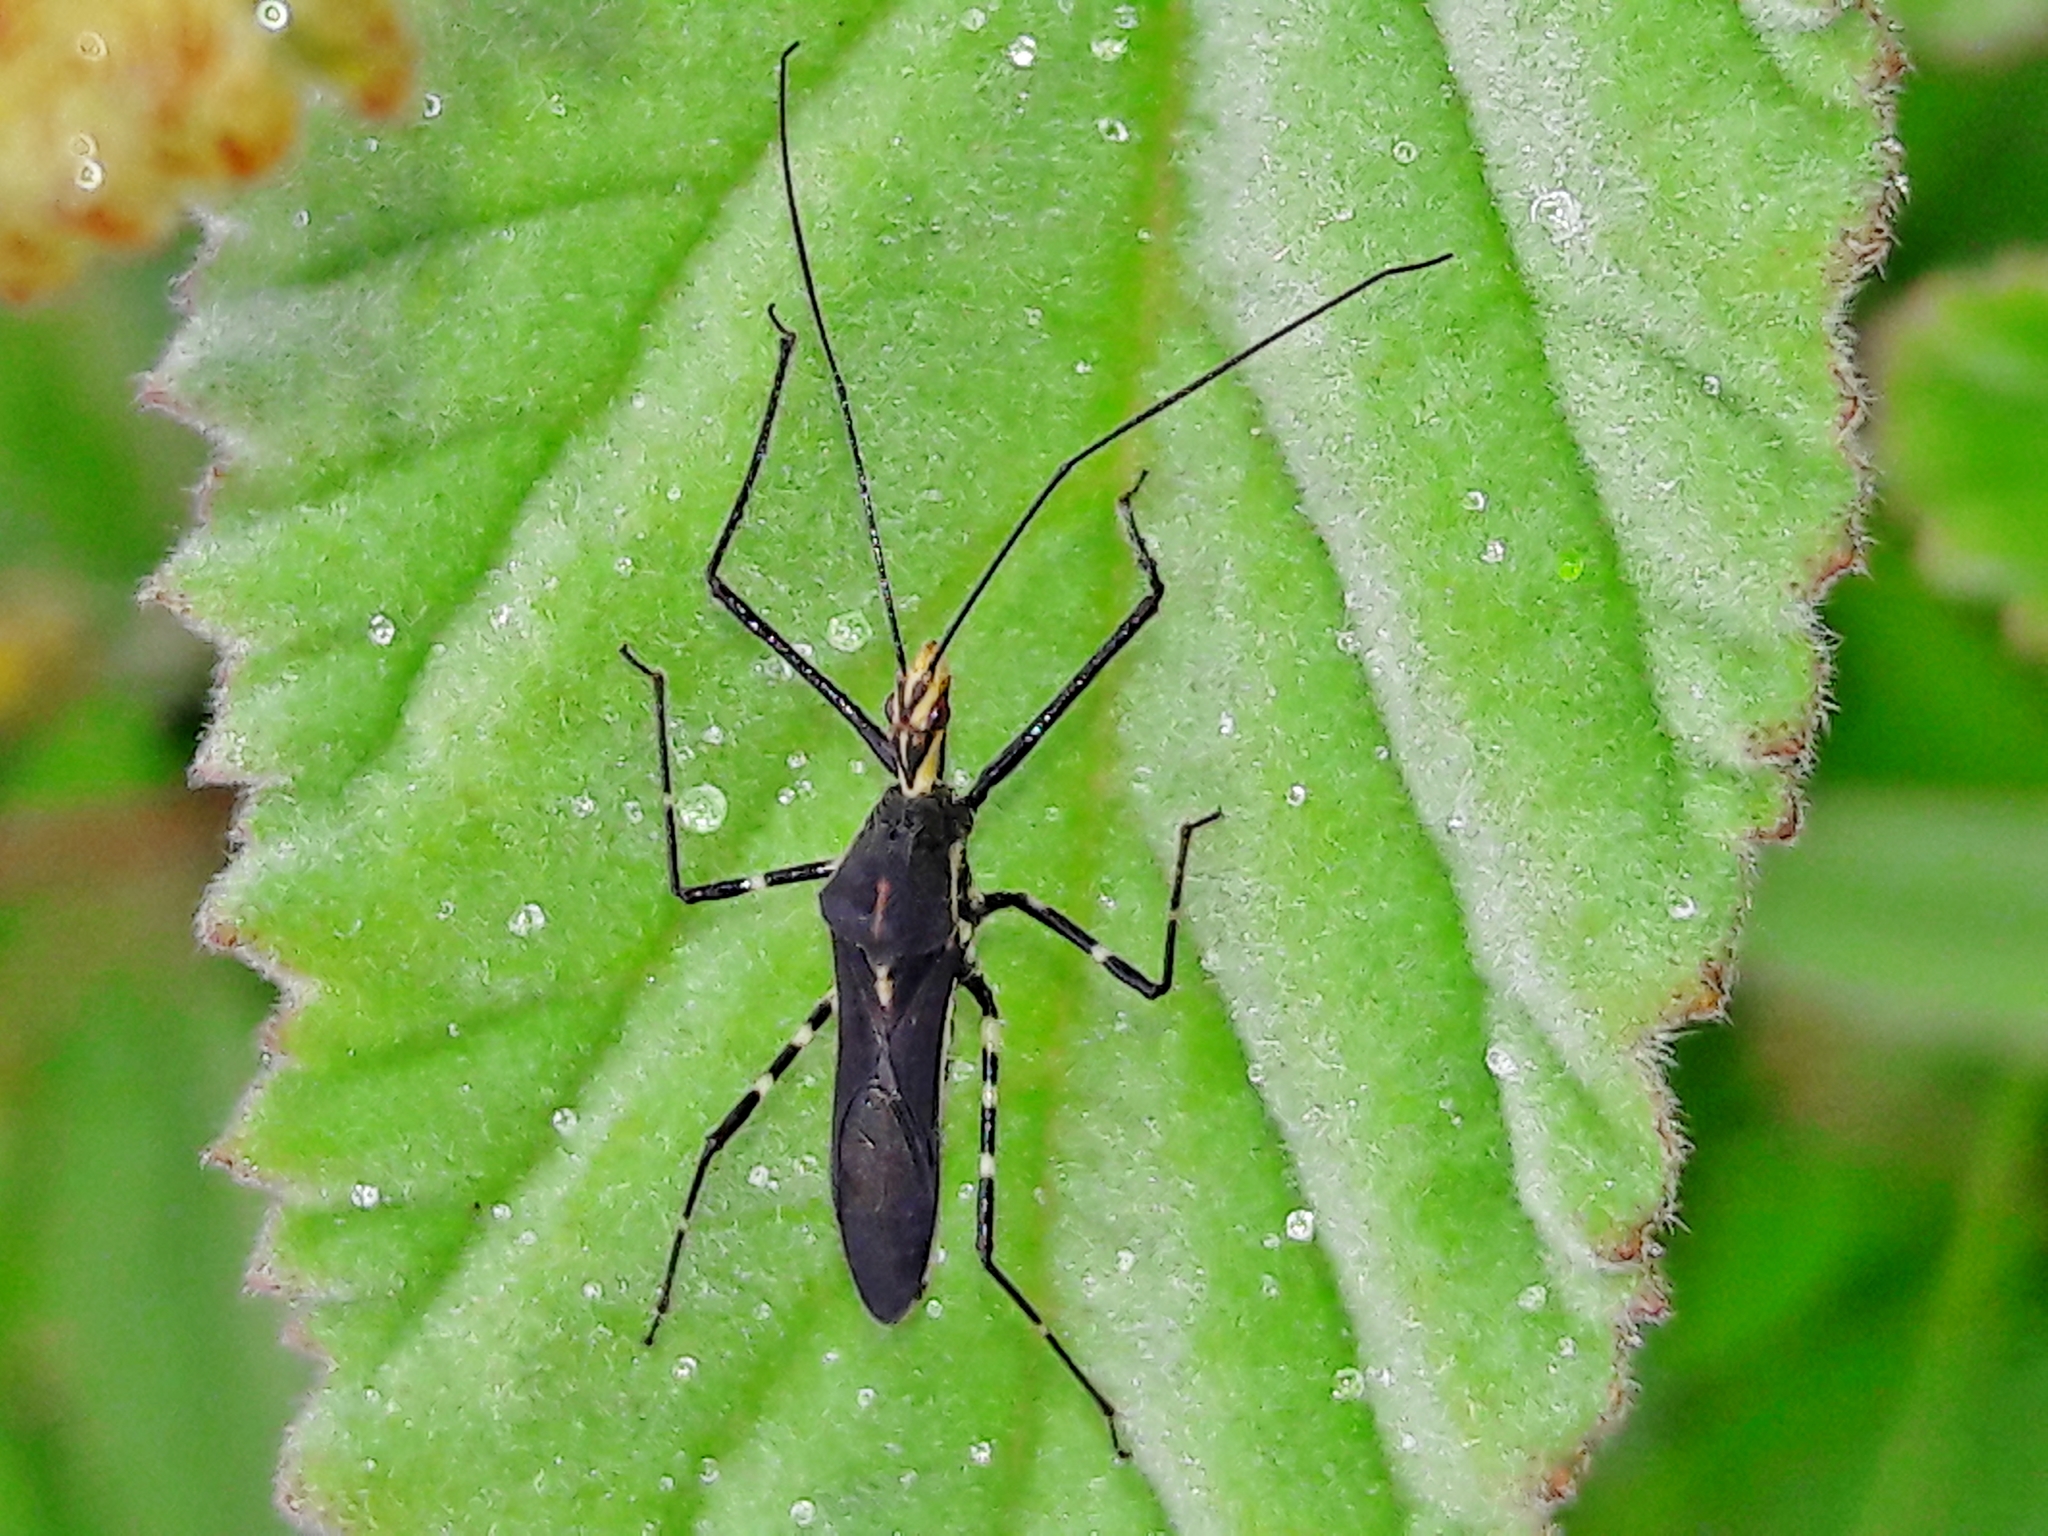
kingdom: Animalia
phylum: Arthropoda
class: Insecta
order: Hemiptera
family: Reduviidae
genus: Zelus
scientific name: Zelus laticornis
